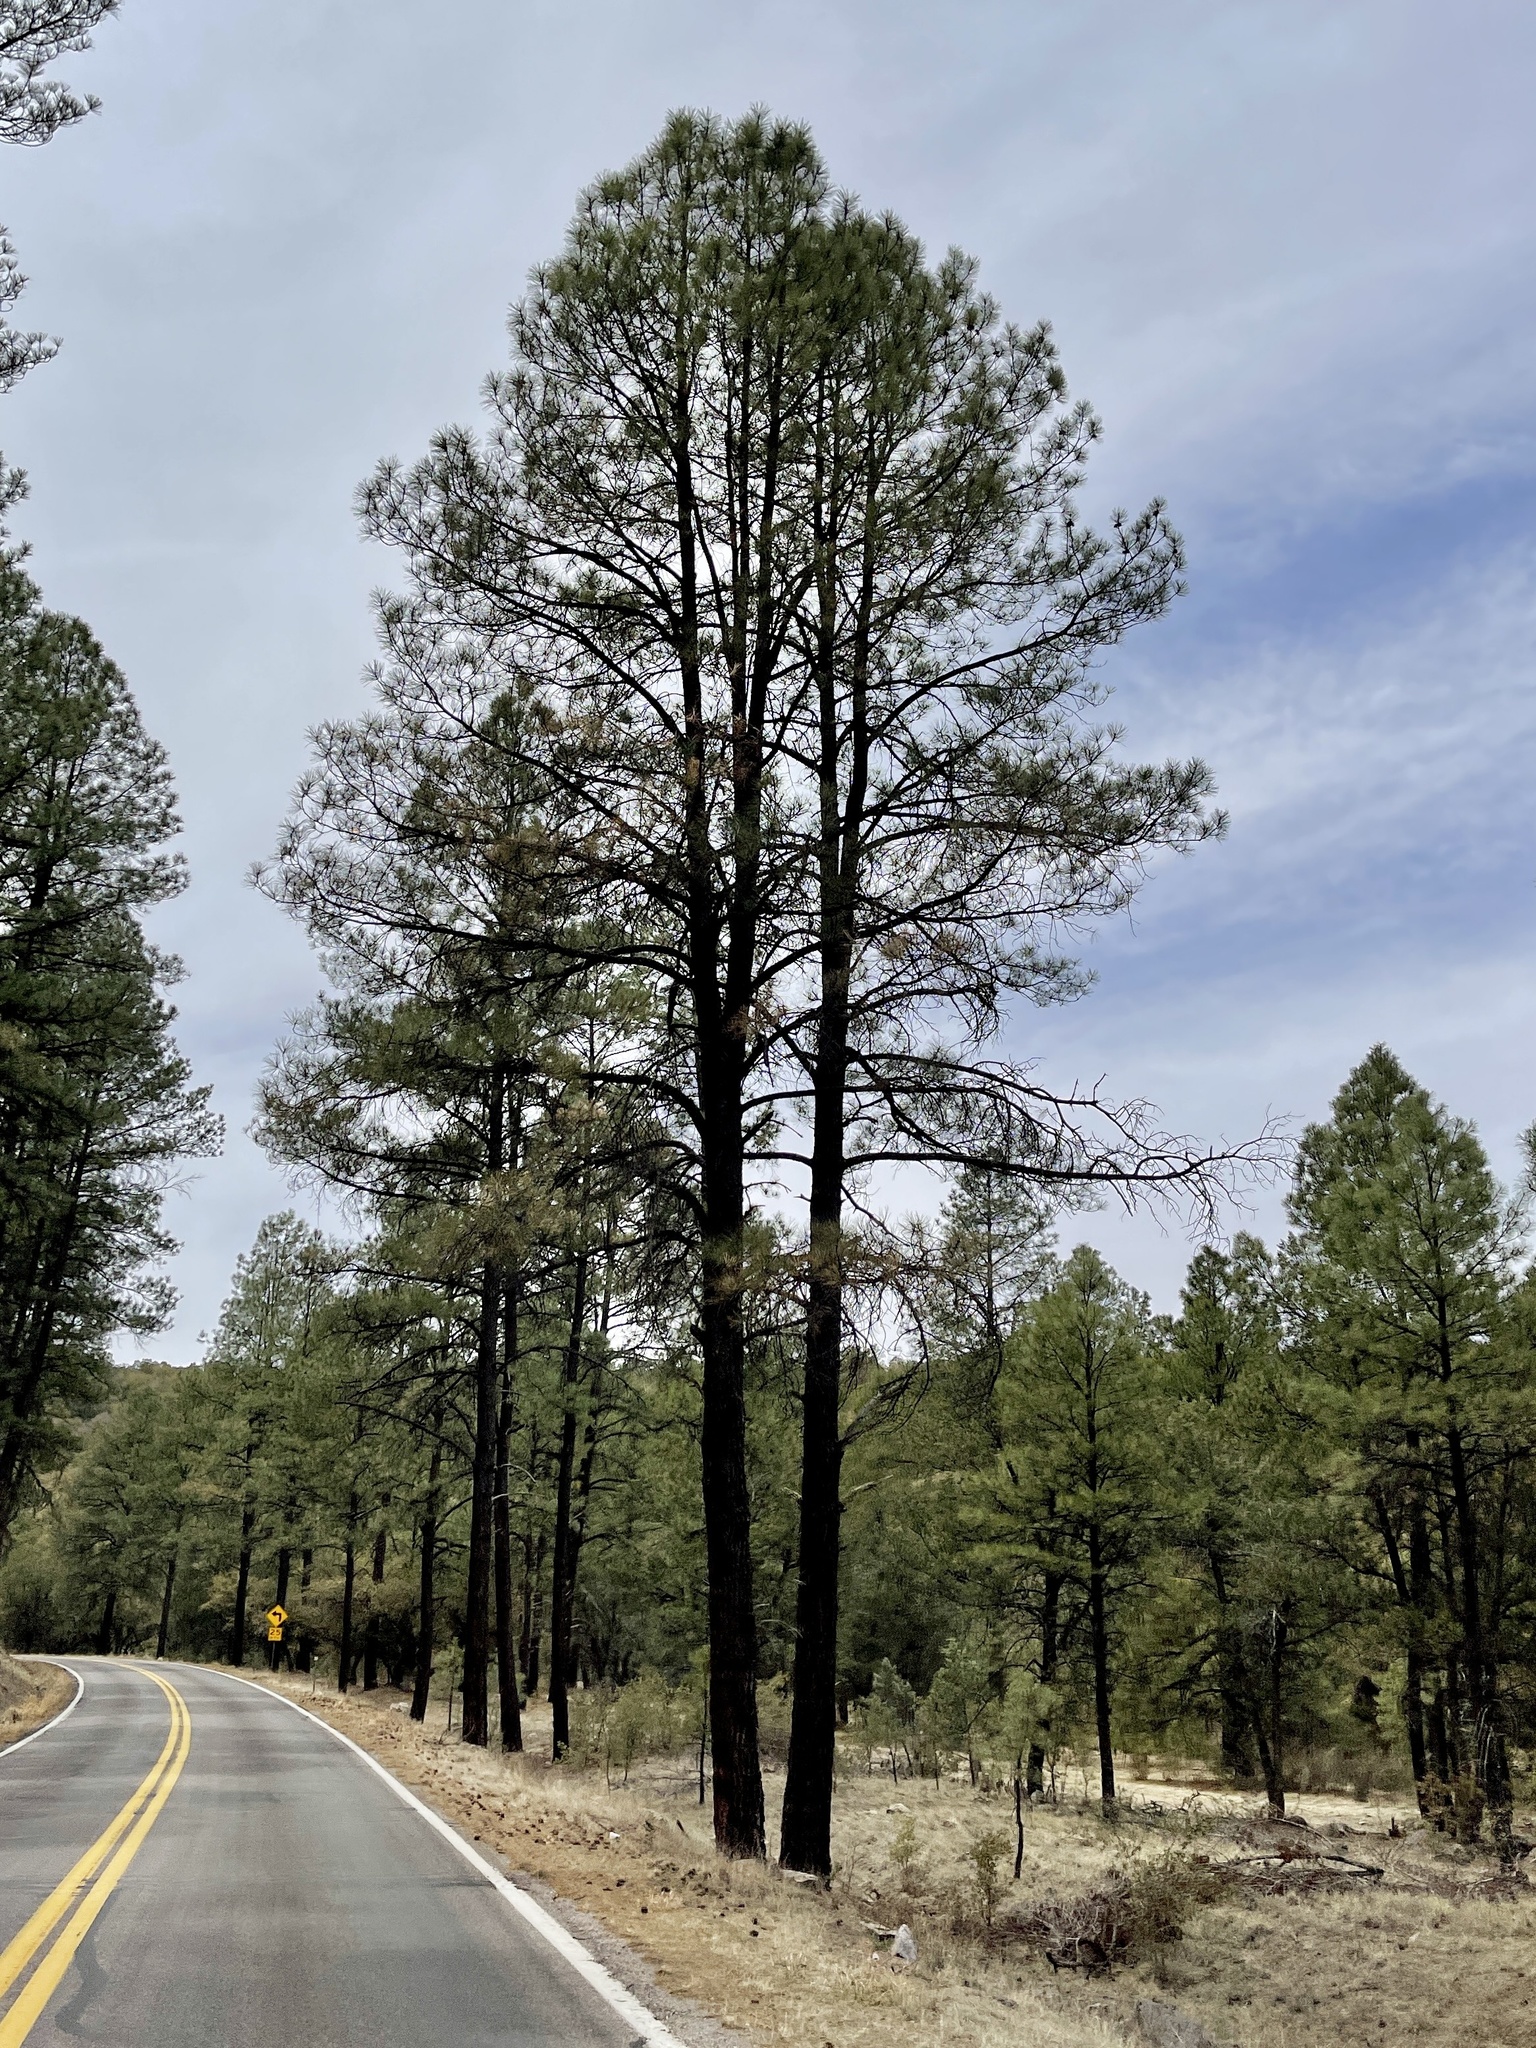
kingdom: Plantae
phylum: Tracheophyta
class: Pinopsida
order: Pinales
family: Pinaceae
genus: Pinus
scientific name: Pinus ponderosa
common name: Western yellow-pine
